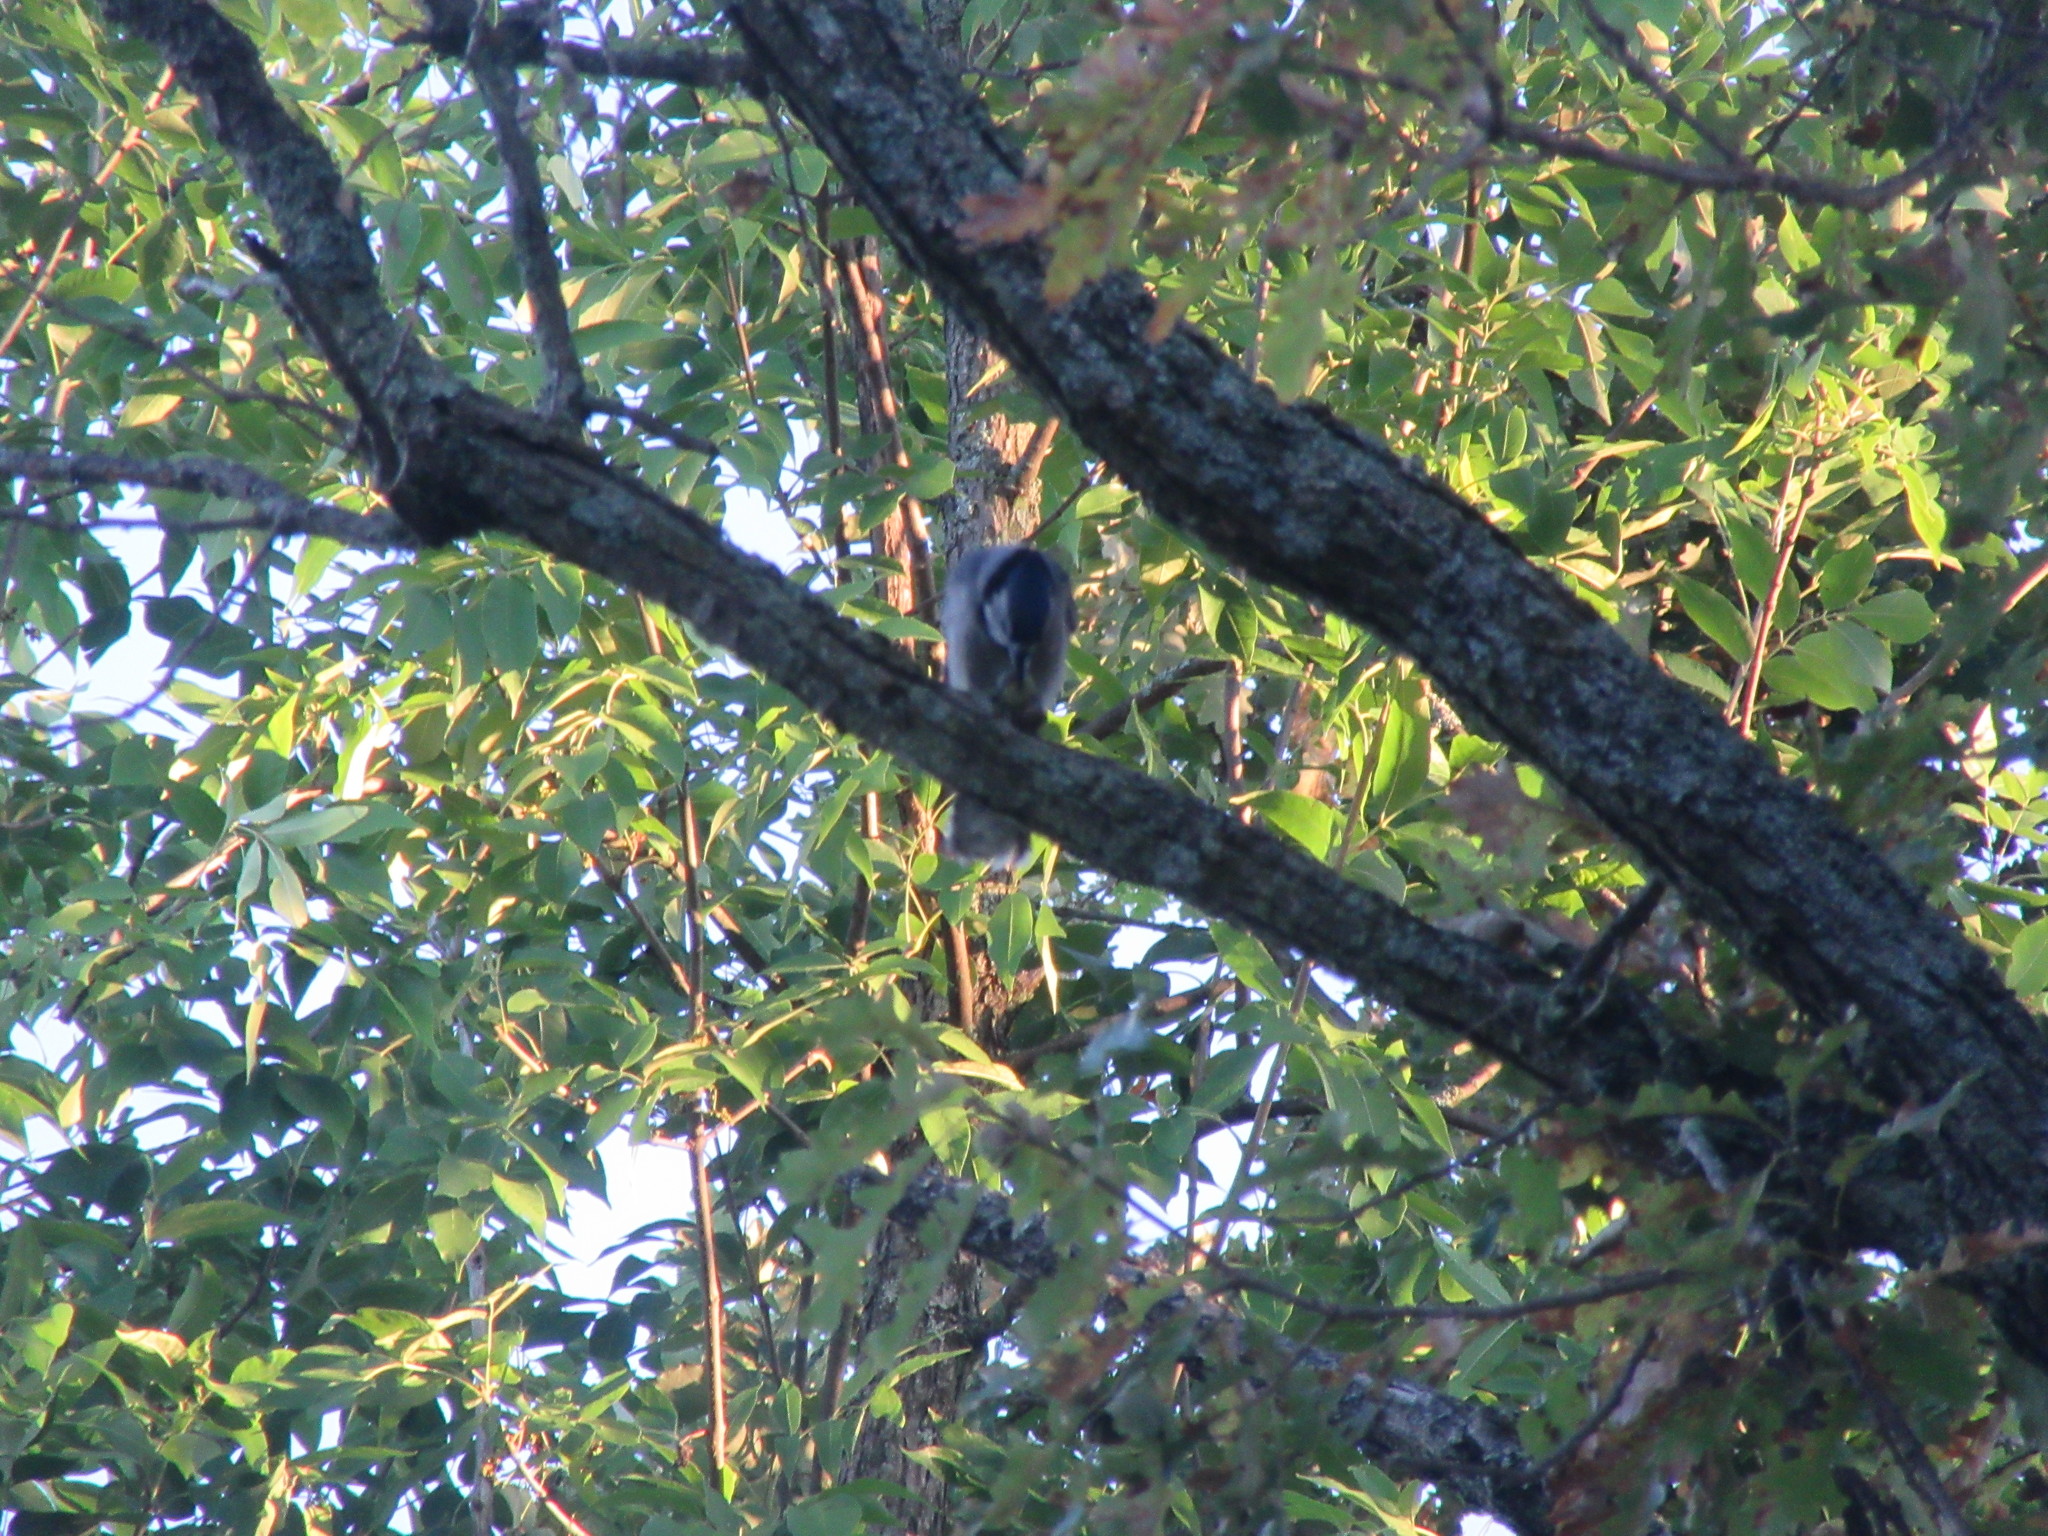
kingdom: Animalia
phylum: Chordata
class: Aves
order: Passeriformes
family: Corvidae
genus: Cyanocitta
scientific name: Cyanocitta cristata
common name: Blue jay
